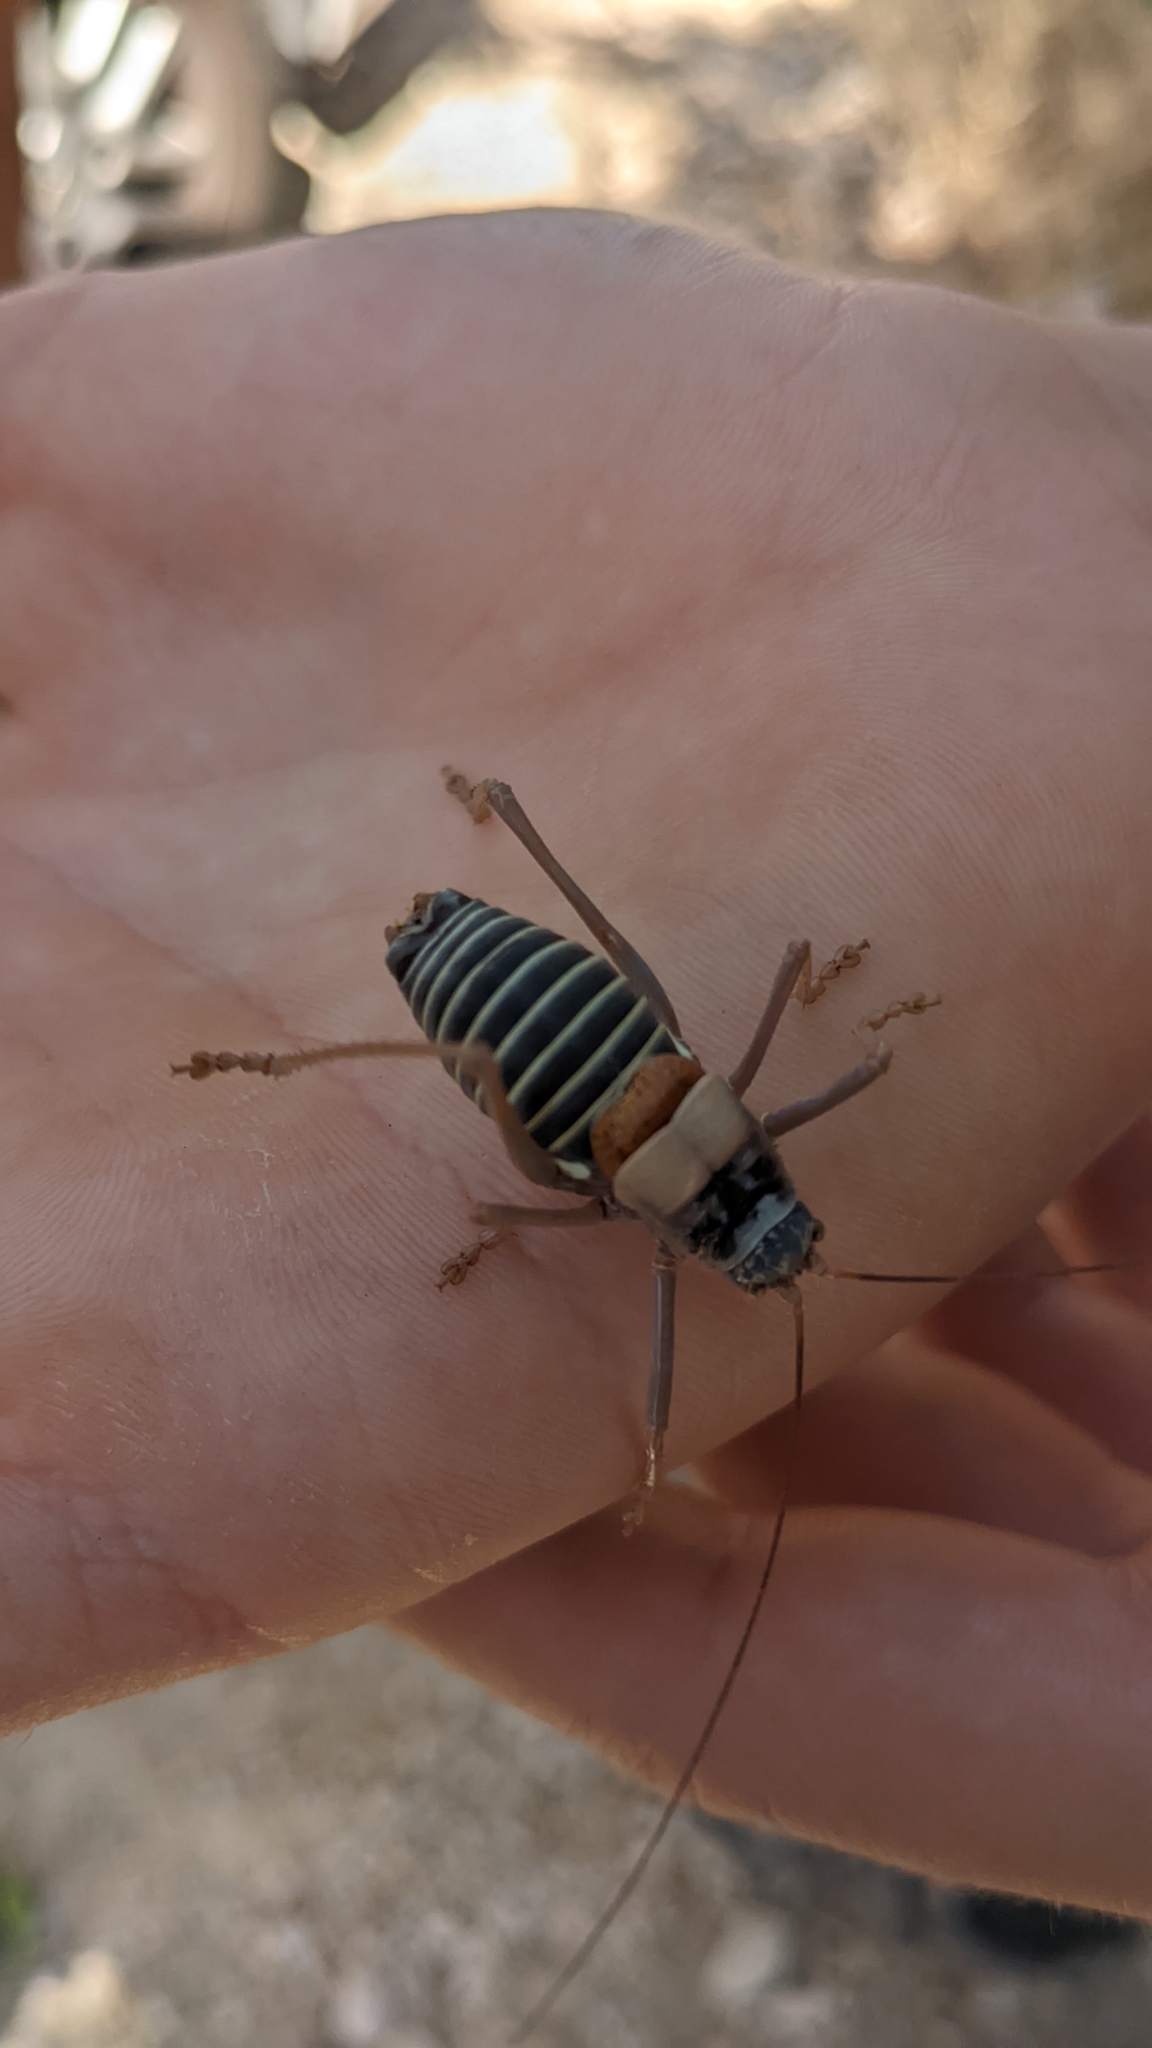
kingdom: Animalia
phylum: Arthropoda
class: Insecta
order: Orthoptera
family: Tettigoniidae
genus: Lluciapomaresius
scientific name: Lluciapomaresius ortegai
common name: Ortega's saddle bush-cricket
